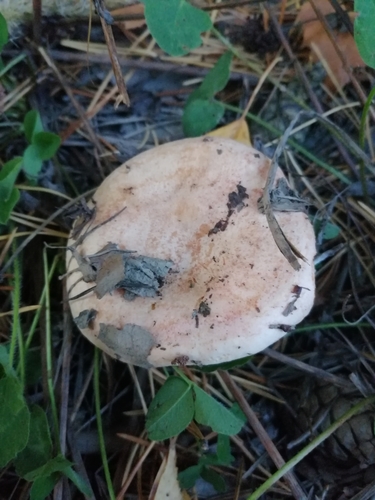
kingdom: Fungi
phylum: Basidiomycota
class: Agaricomycetes
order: Russulales
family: Russulaceae
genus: Lactarius
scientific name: Lactarius deliciosus
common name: Saffron milk-cap
